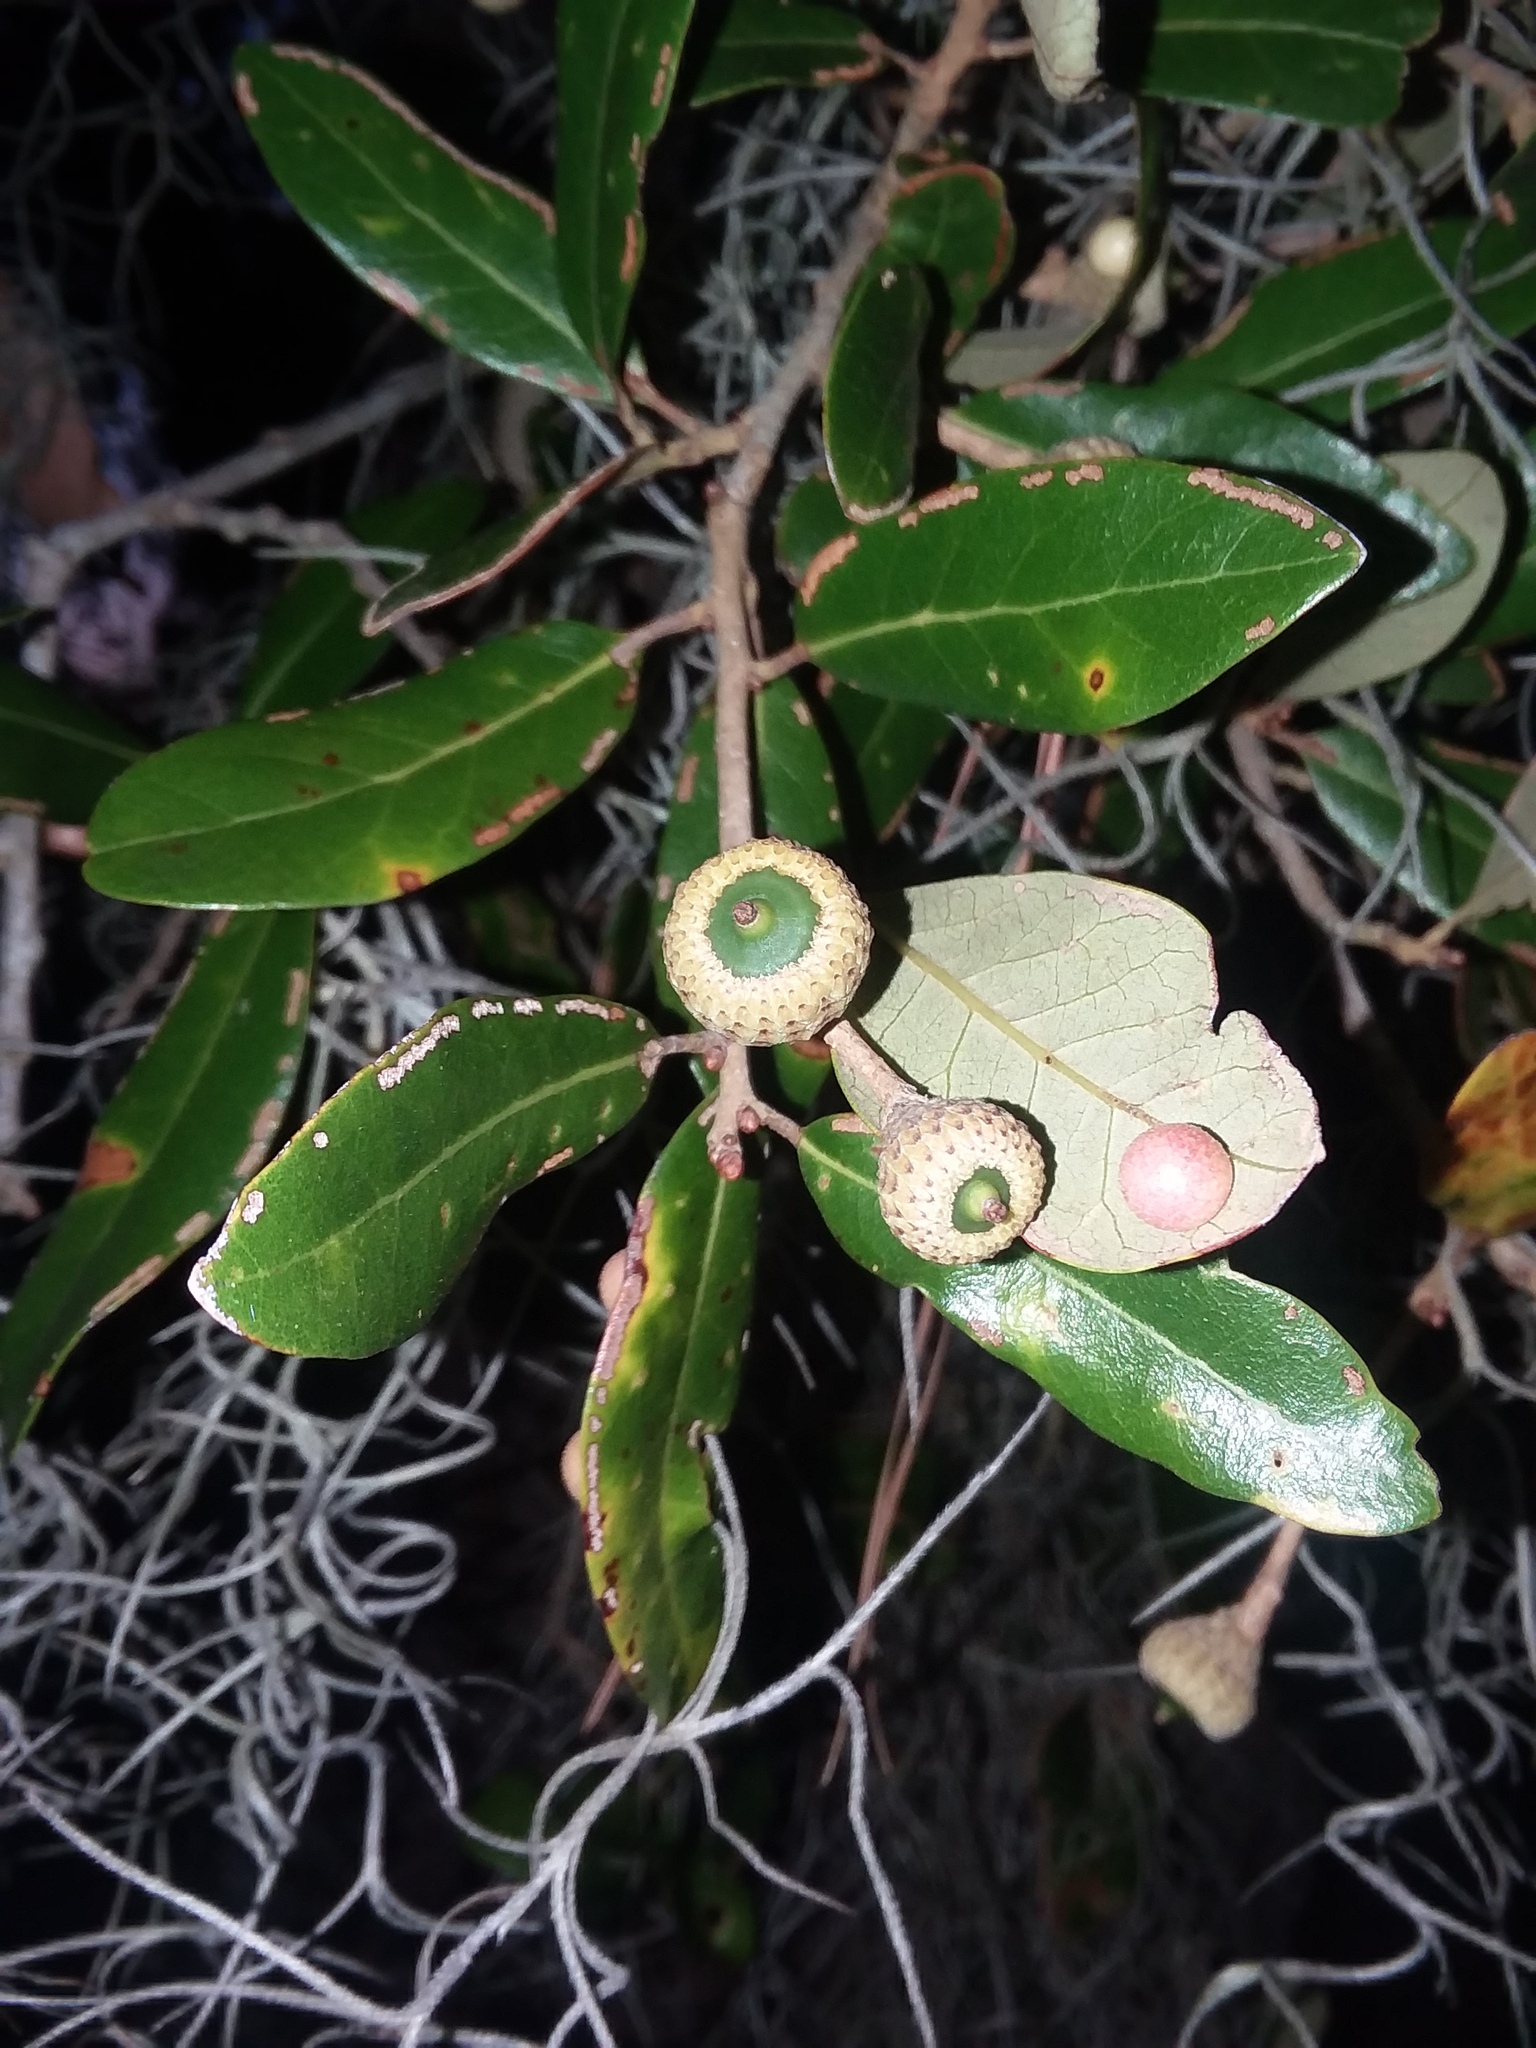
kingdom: Plantae
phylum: Tracheophyta
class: Magnoliopsida
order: Fagales
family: Fagaceae
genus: Quercus
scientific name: Quercus virginiana
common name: Southern live oak
